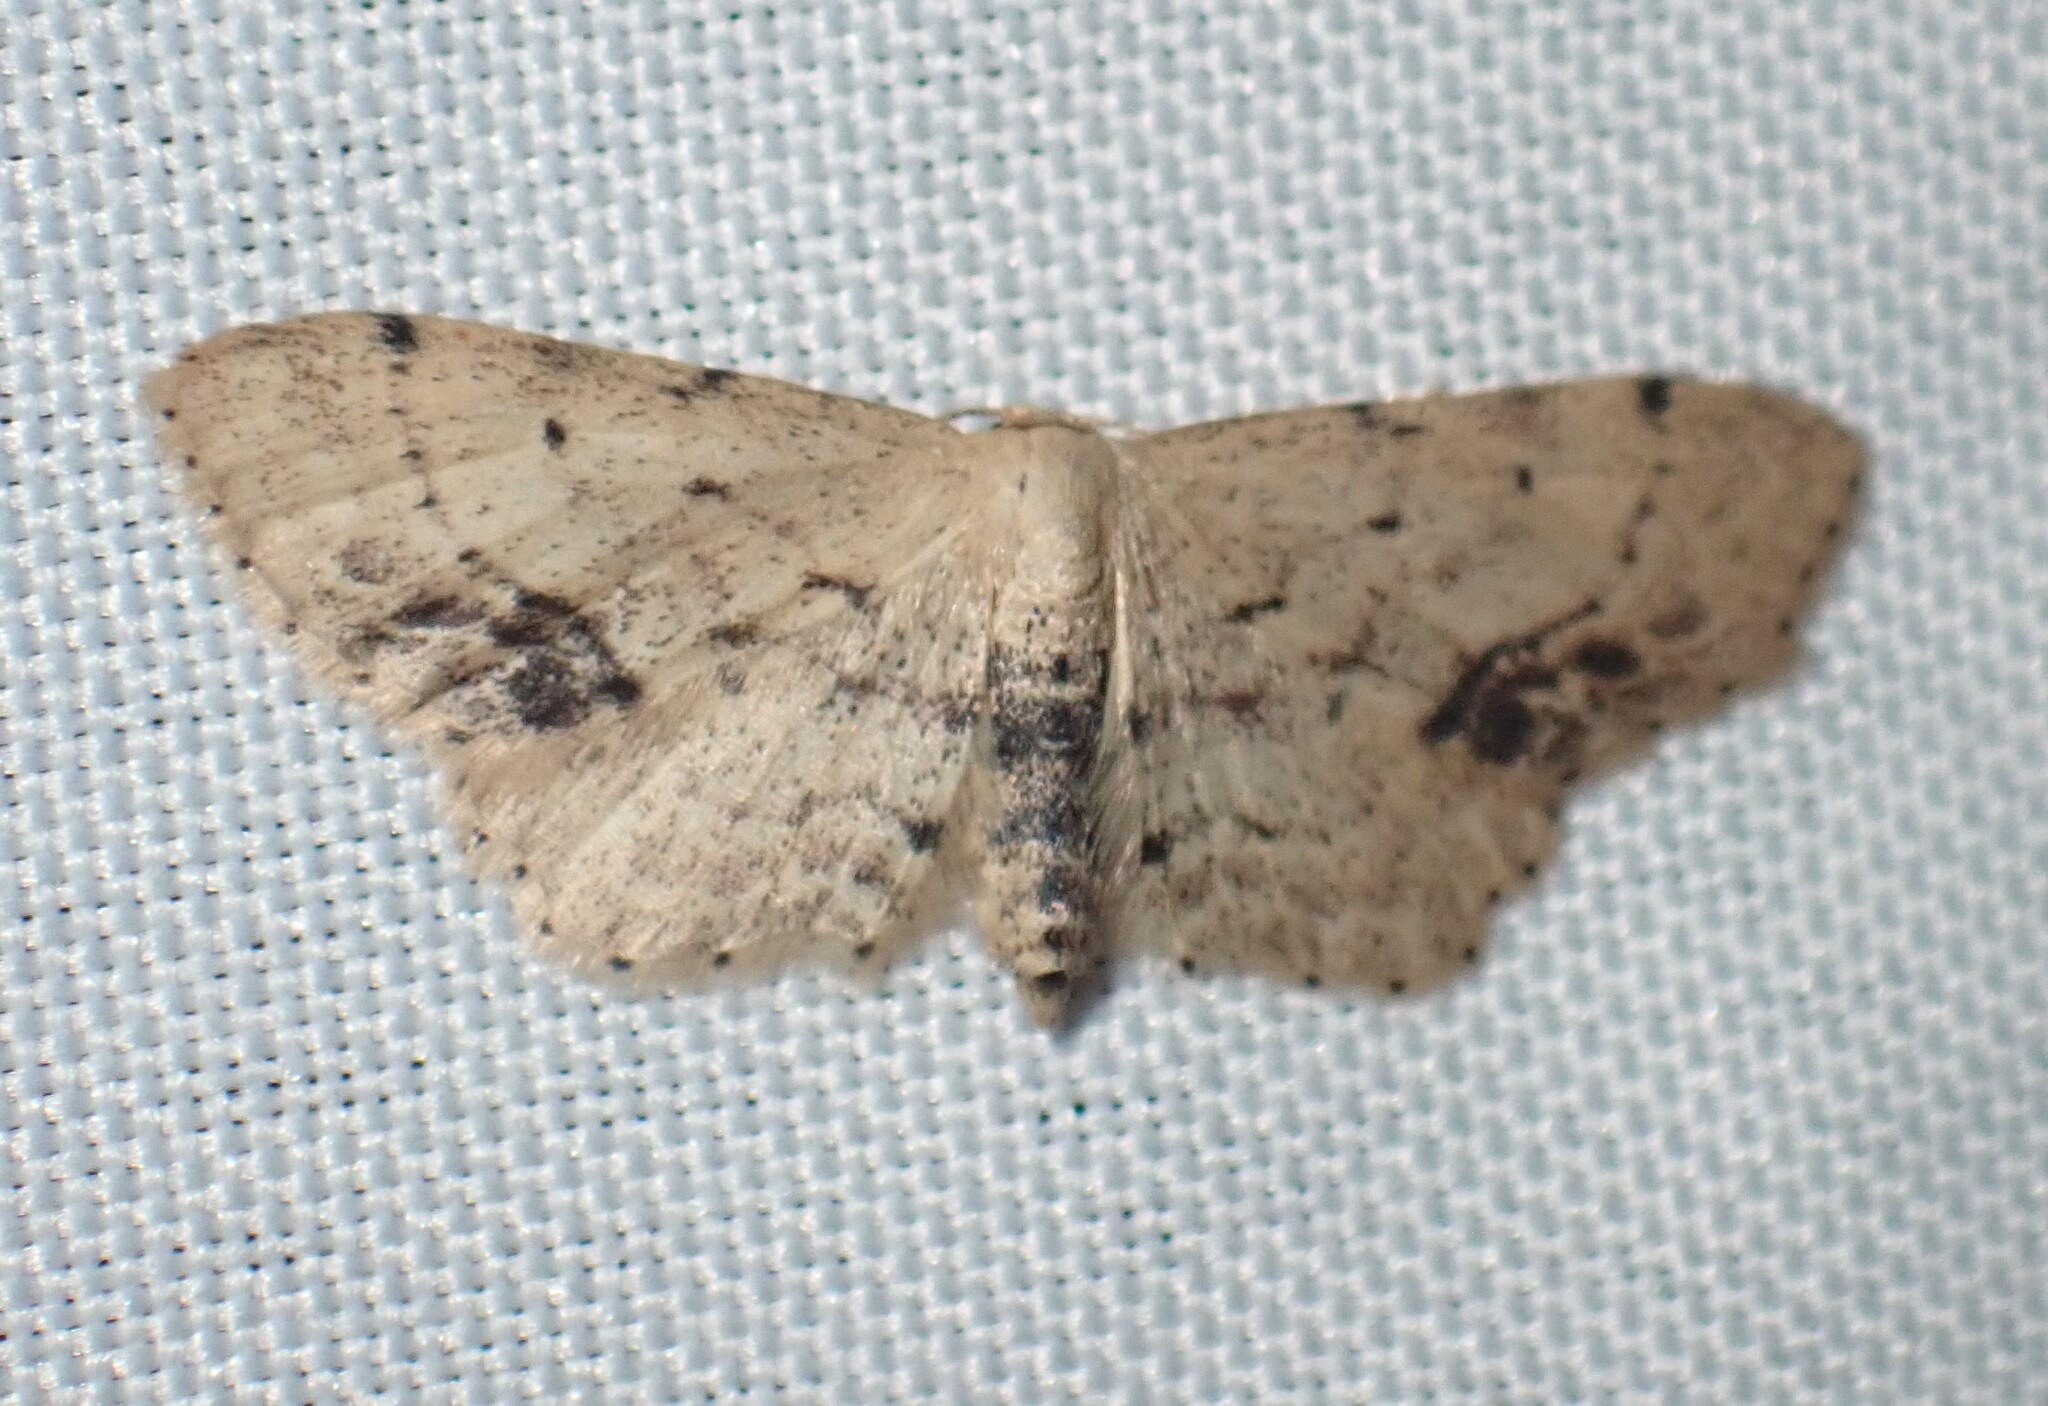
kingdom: Animalia
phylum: Arthropoda
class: Insecta
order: Lepidoptera
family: Geometridae
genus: Idaea
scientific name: Idaea dimidiata
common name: Single-dotted wave
